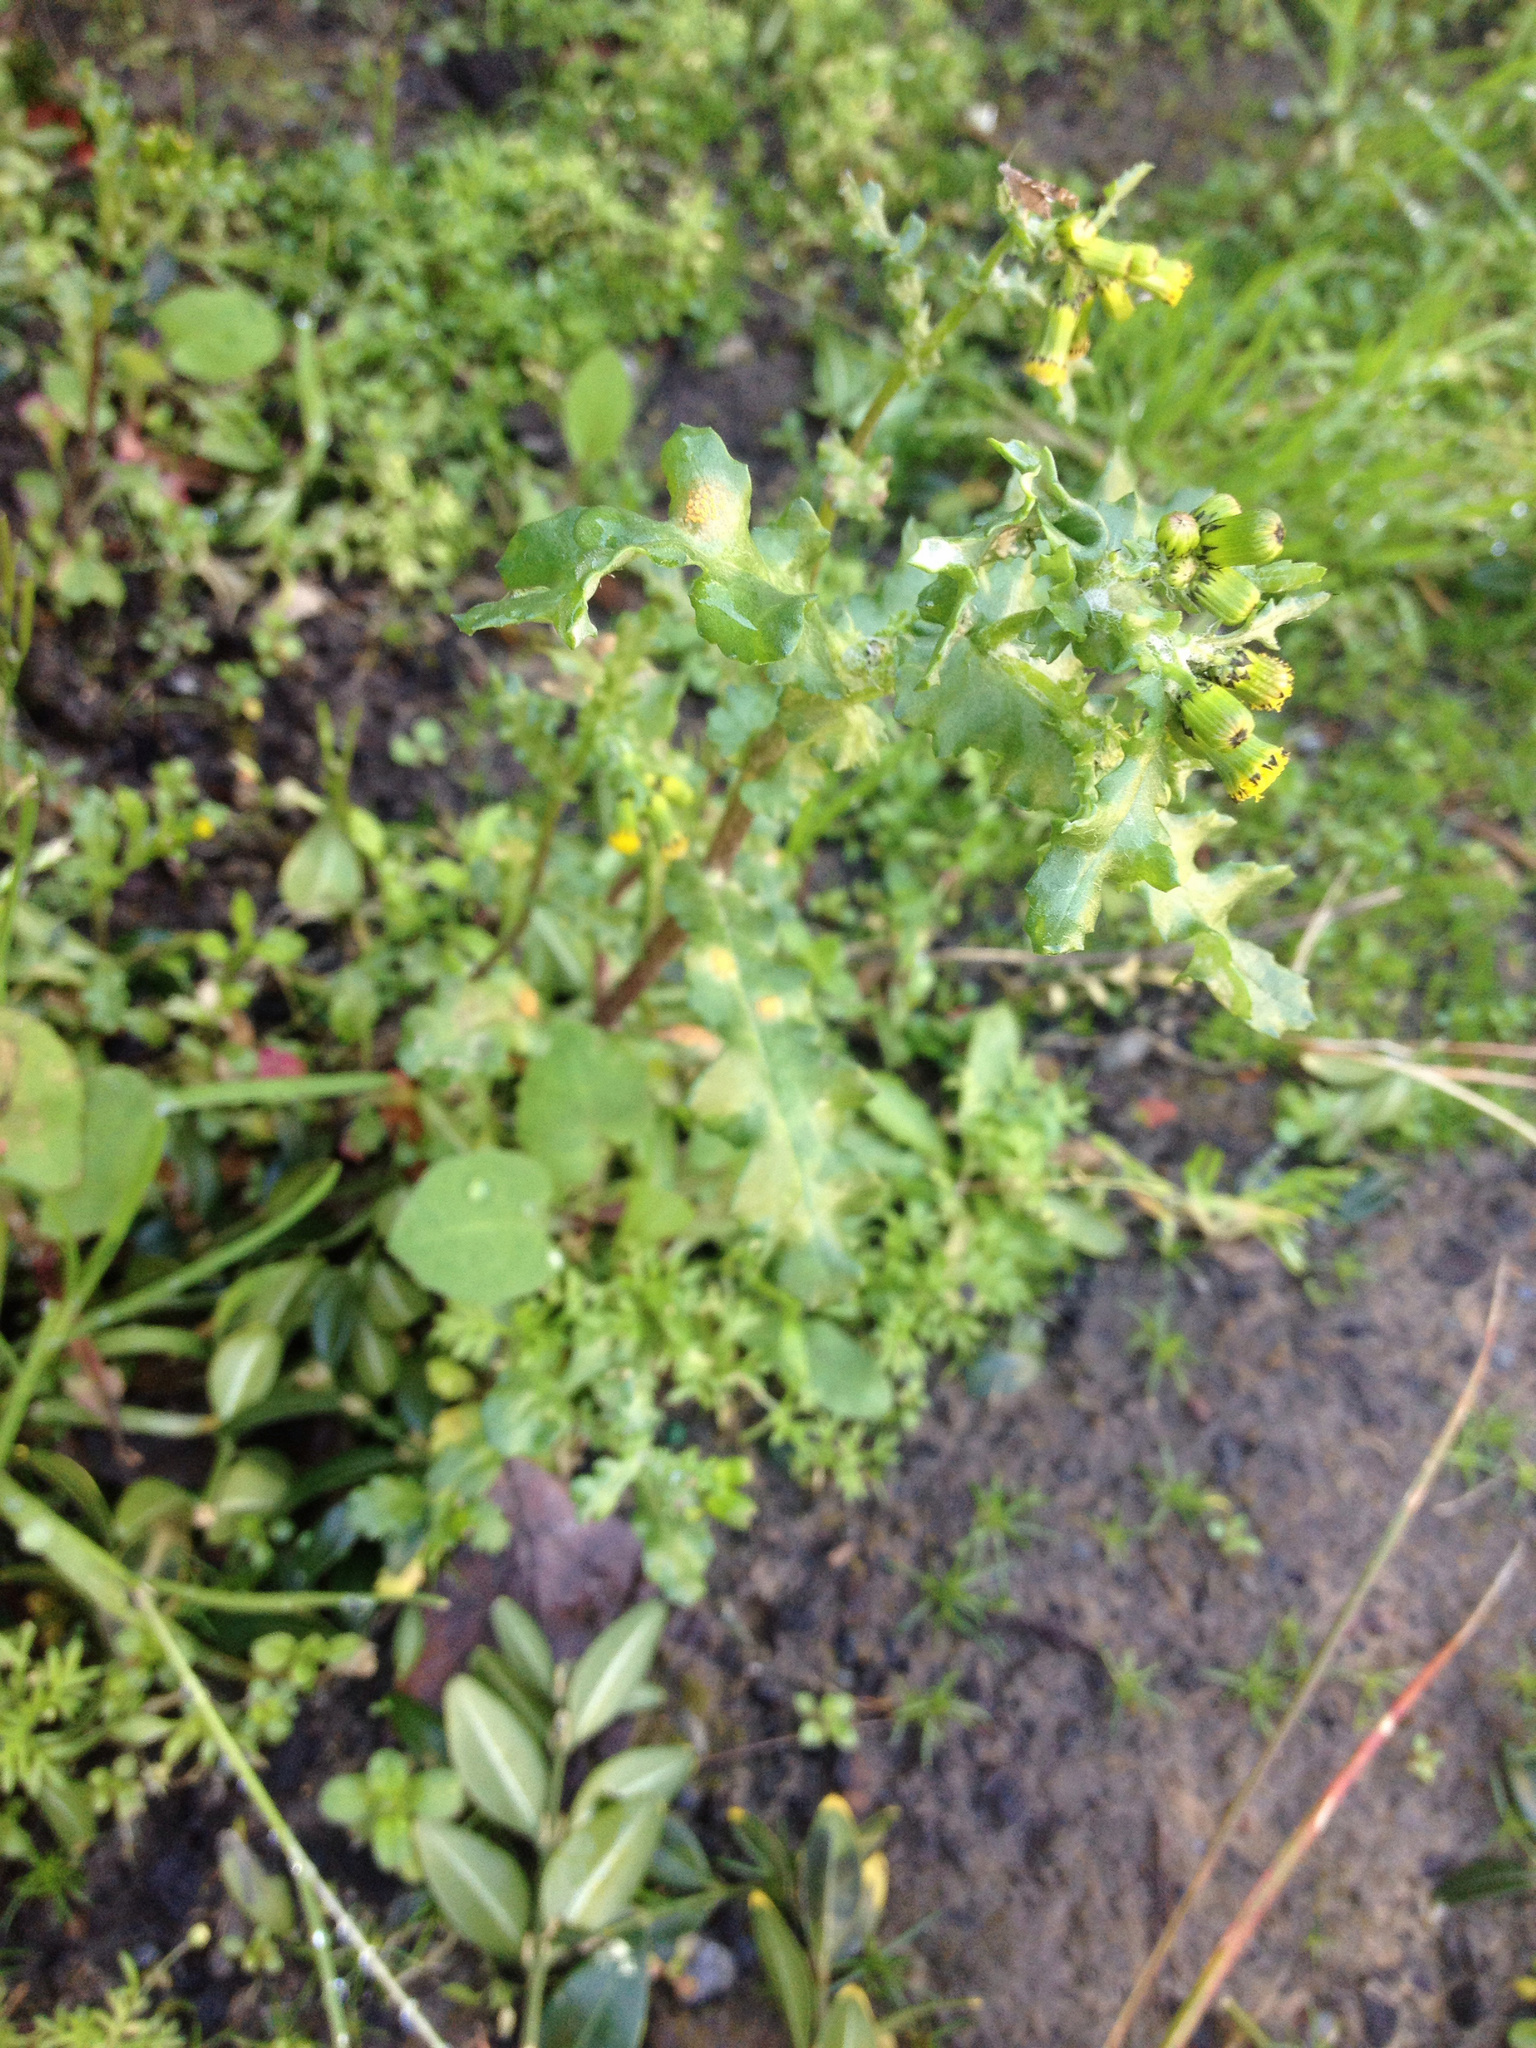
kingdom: Plantae
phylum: Tracheophyta
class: Magnoliopsida
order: Asterales
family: Asteraceae
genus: Senecio
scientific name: Senecio vulgaris
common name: Old-man-in-the-spring
